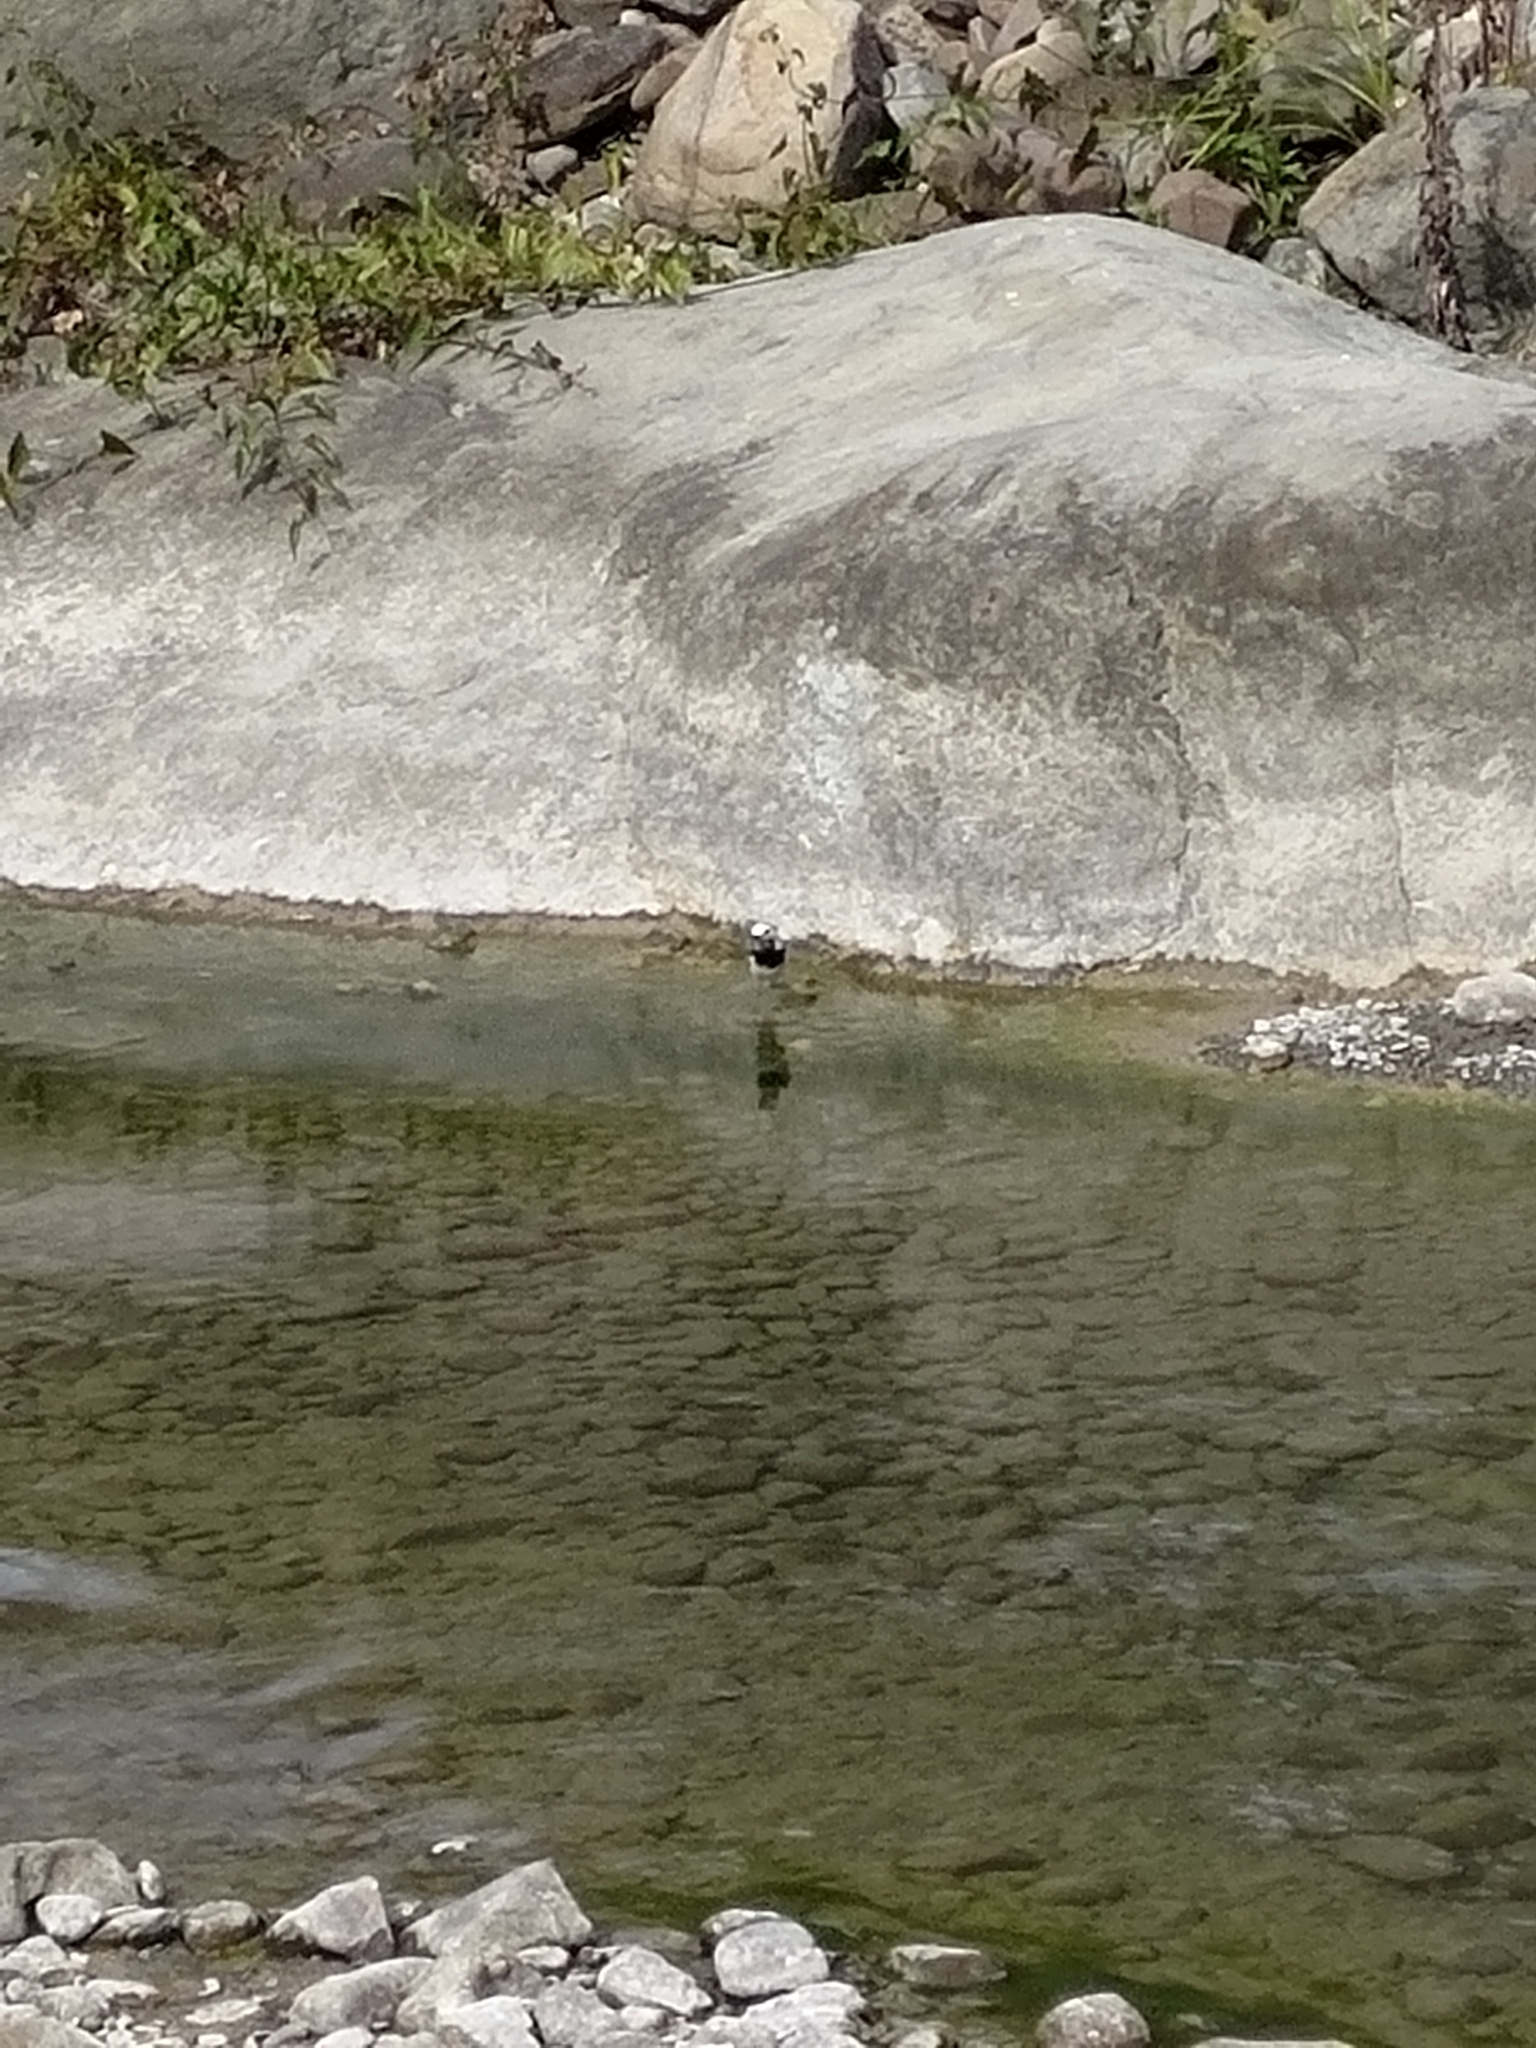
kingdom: Animalia
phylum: Chordata
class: Aves
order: Passeriformes
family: Motacillidae
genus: Motacilla
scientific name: Motacilla alba
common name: White wagtail
